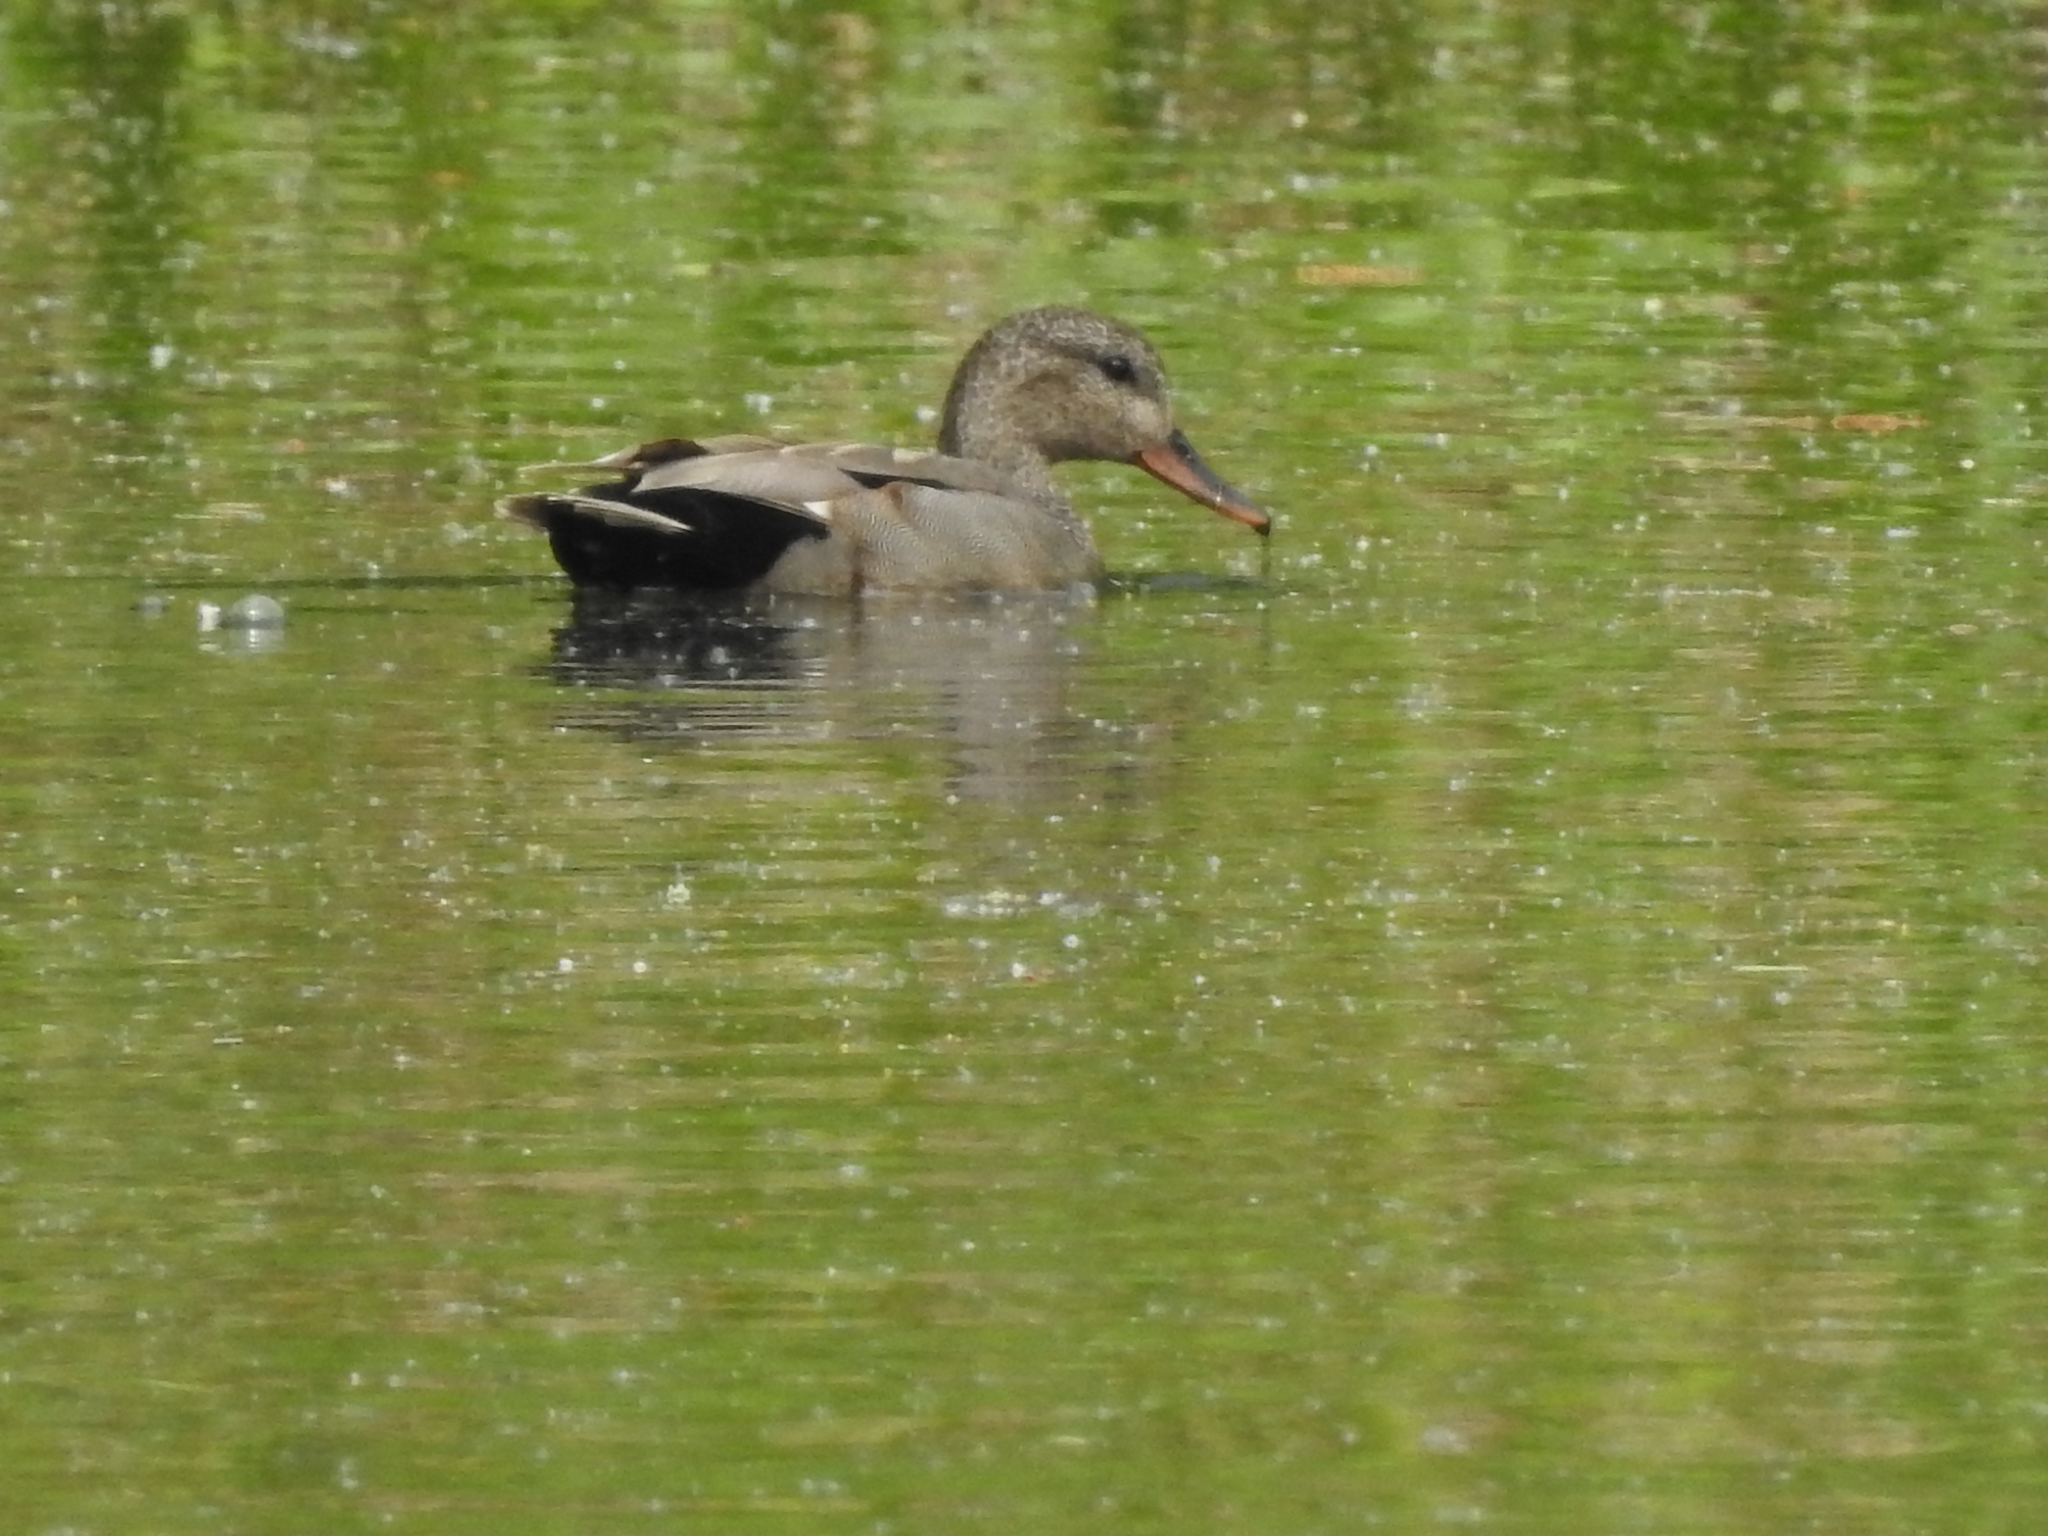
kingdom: Animalia
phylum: Chordata
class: Aves
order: Anseriformes
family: Anatidae
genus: Mareca
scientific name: Mareca strepera
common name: Gadwall
